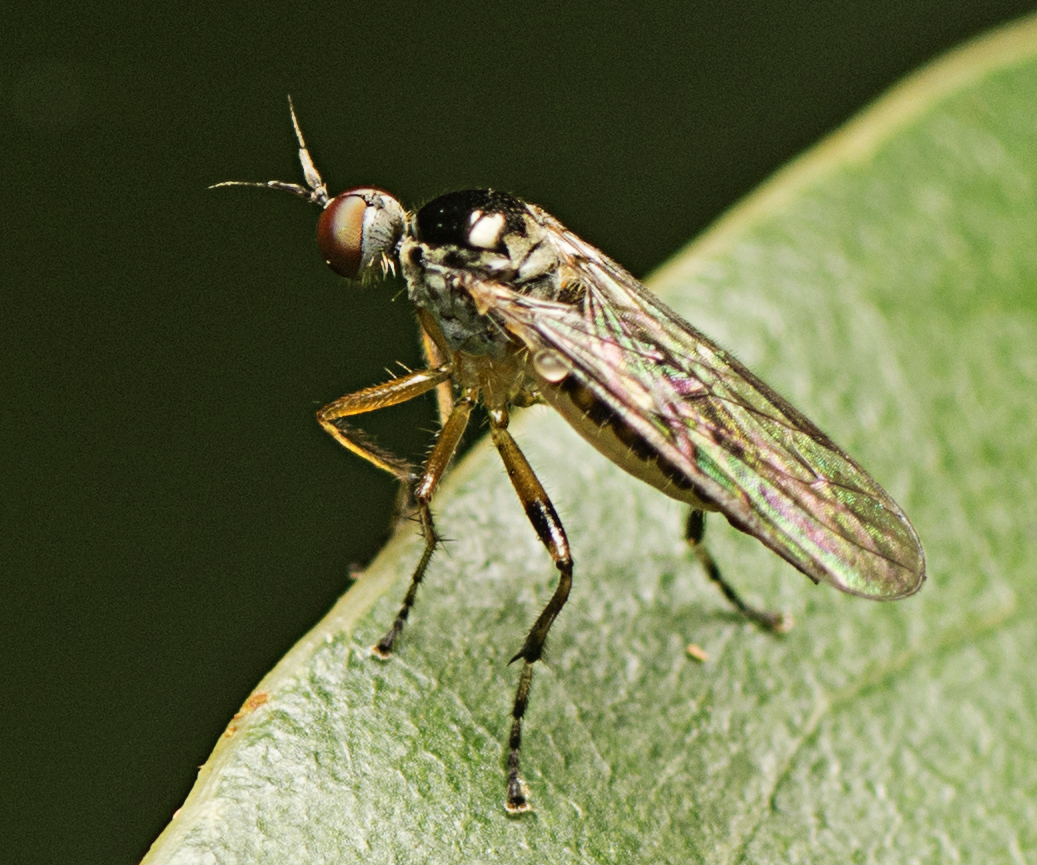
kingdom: Animalia
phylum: Arthropoda
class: Insecta
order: Diptera
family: Hybotidae
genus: Hoplopeza
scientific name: Hoplopeza pulcherrima
